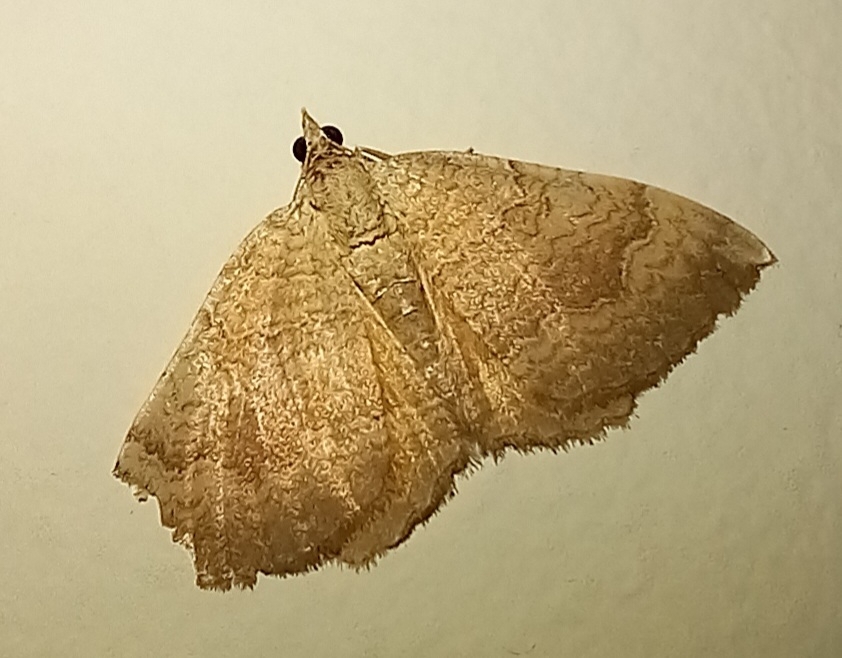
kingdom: Animalia
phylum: Arthropoda
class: Insecta
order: Lepidoptera
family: Geometridae
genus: Camptogramma
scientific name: Camptogramma bilineata
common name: Yellow shell
